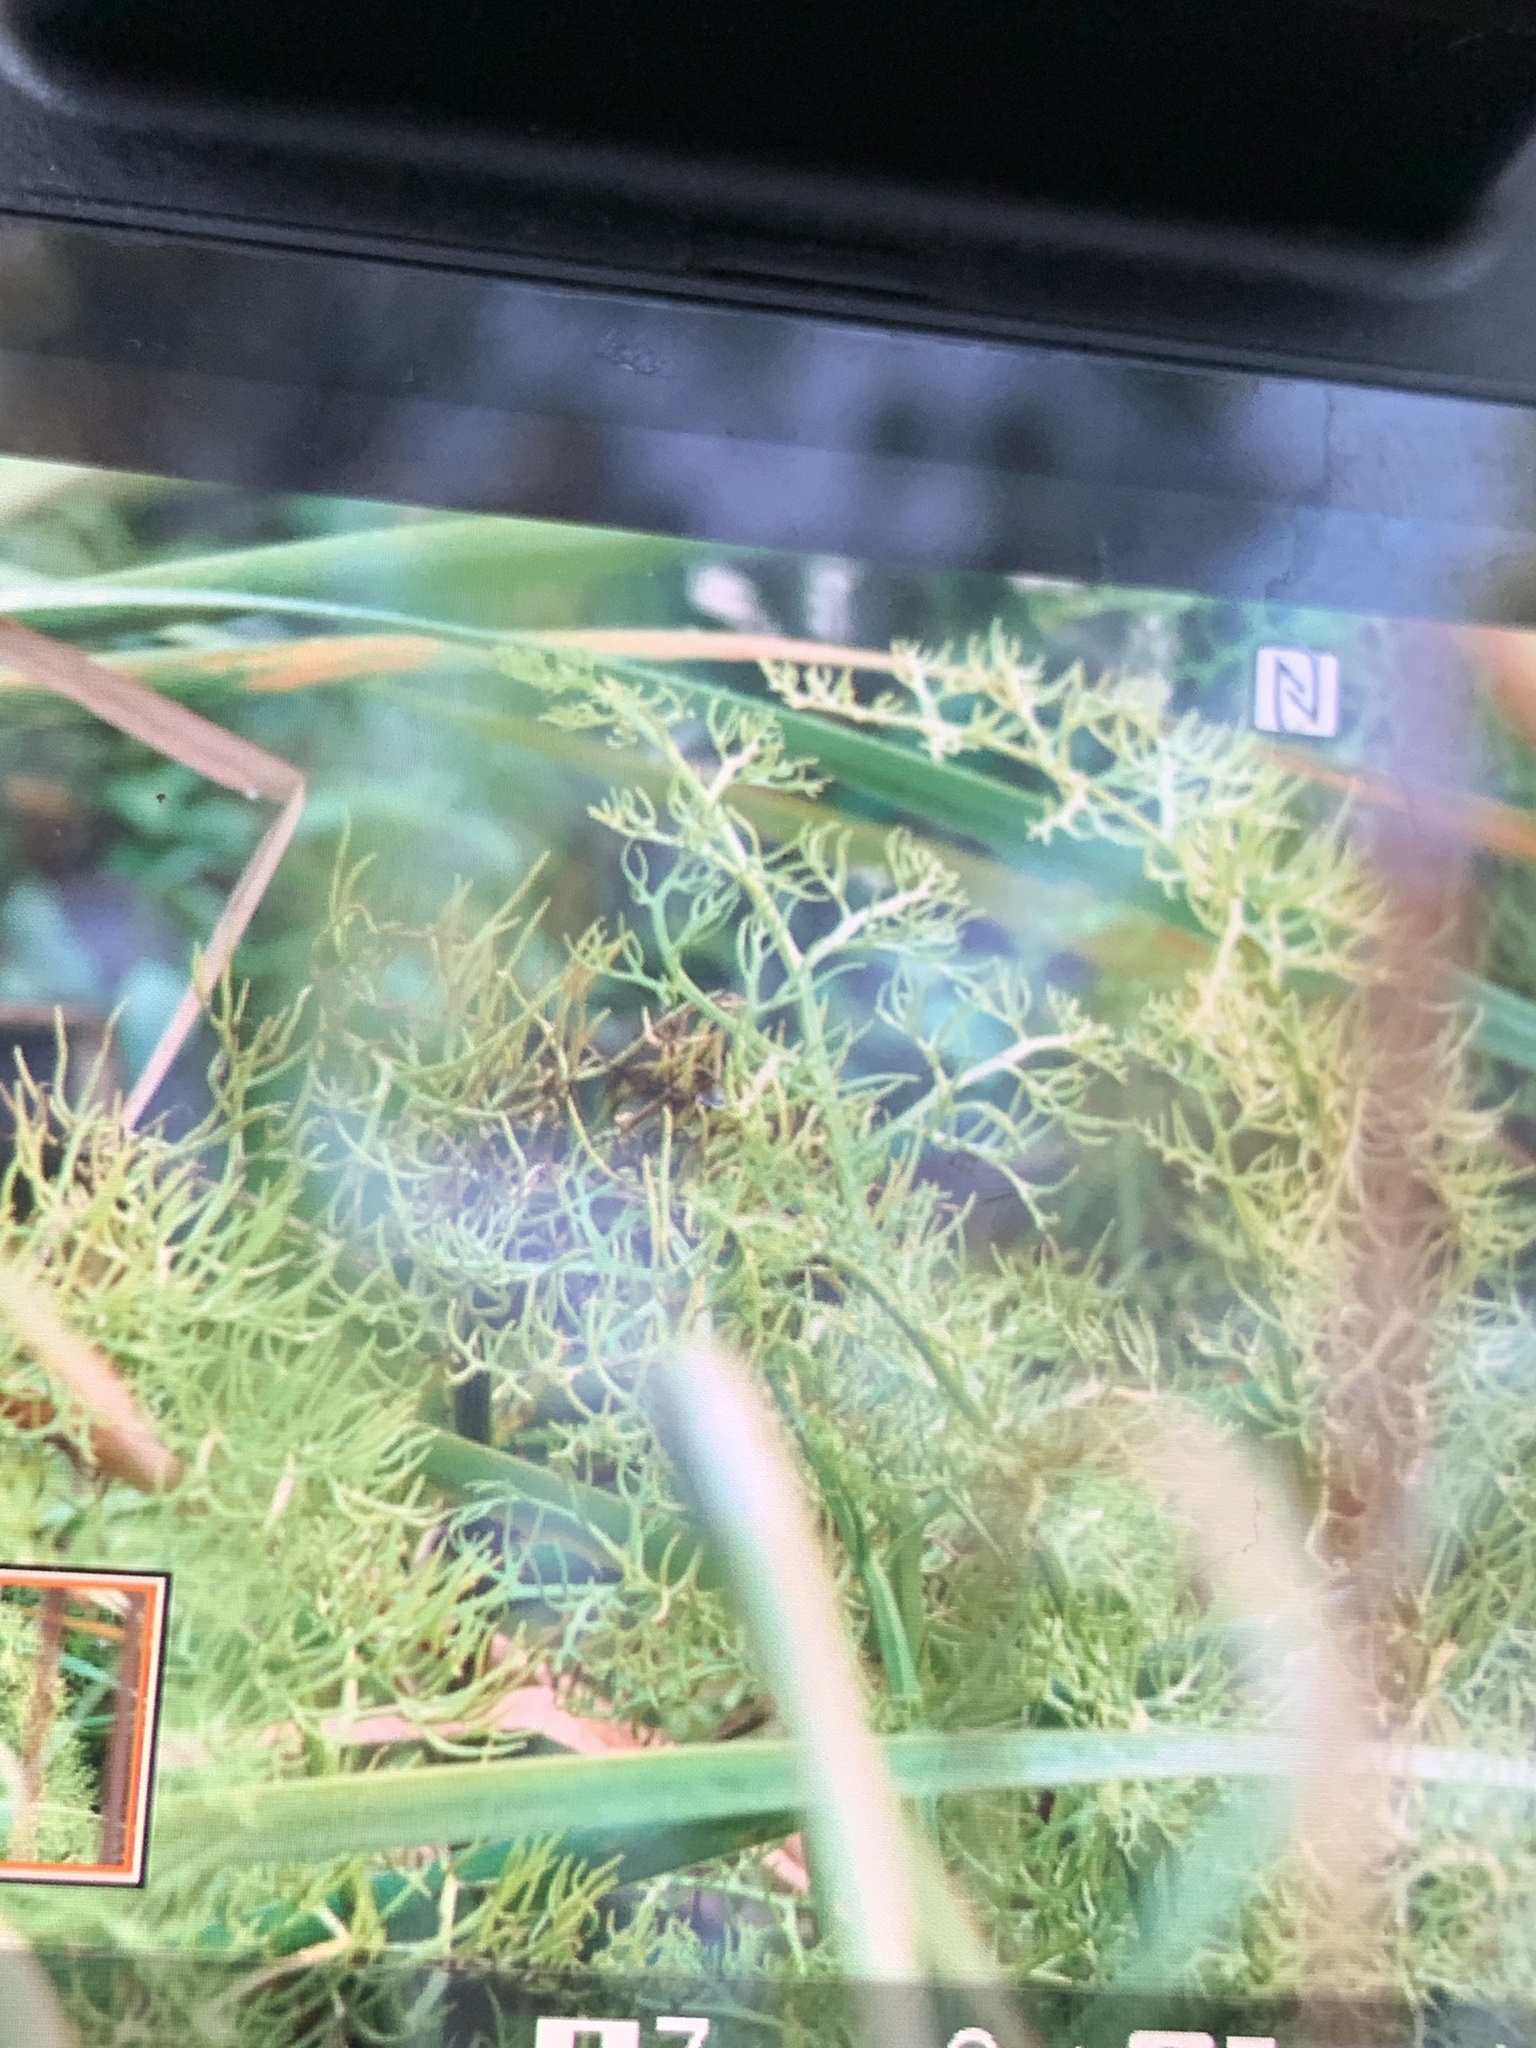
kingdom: Plantae
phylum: Tracheophyta
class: Polypodiopsida
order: Polypodiales
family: Pteridaceae
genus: Ceratopteris
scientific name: Ceratopteris thalictroides
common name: Water fern
